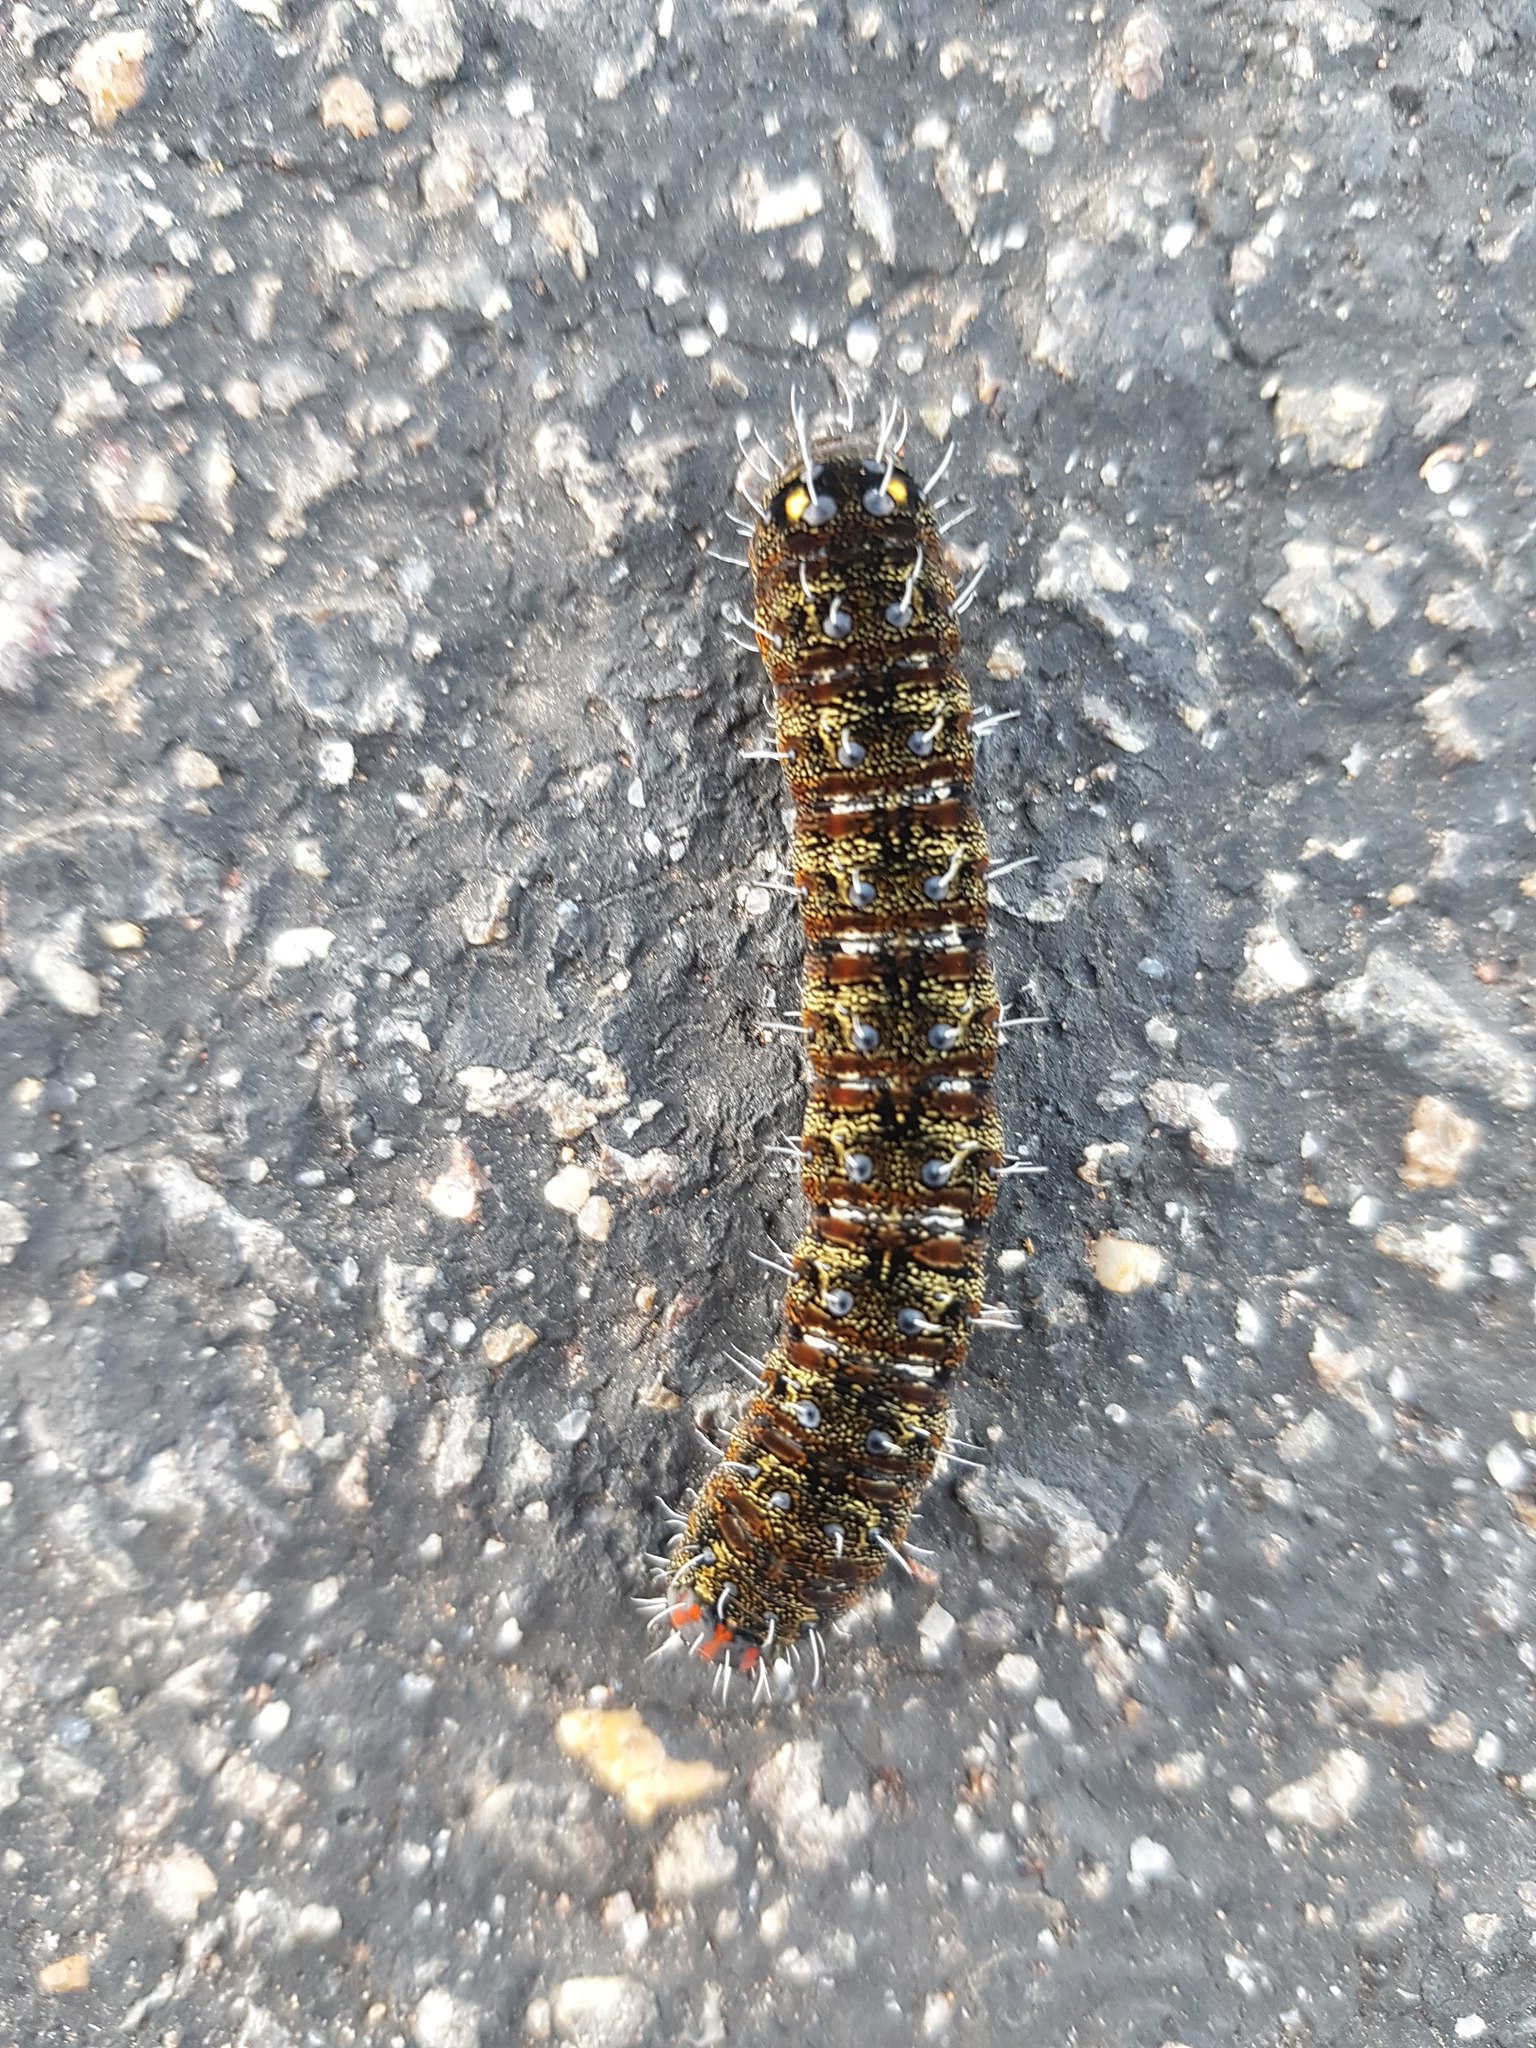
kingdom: Animalia
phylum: Arthropoda
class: Insecta
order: Lepidoptera
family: Noctuidae
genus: Apina
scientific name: Apina callisto
